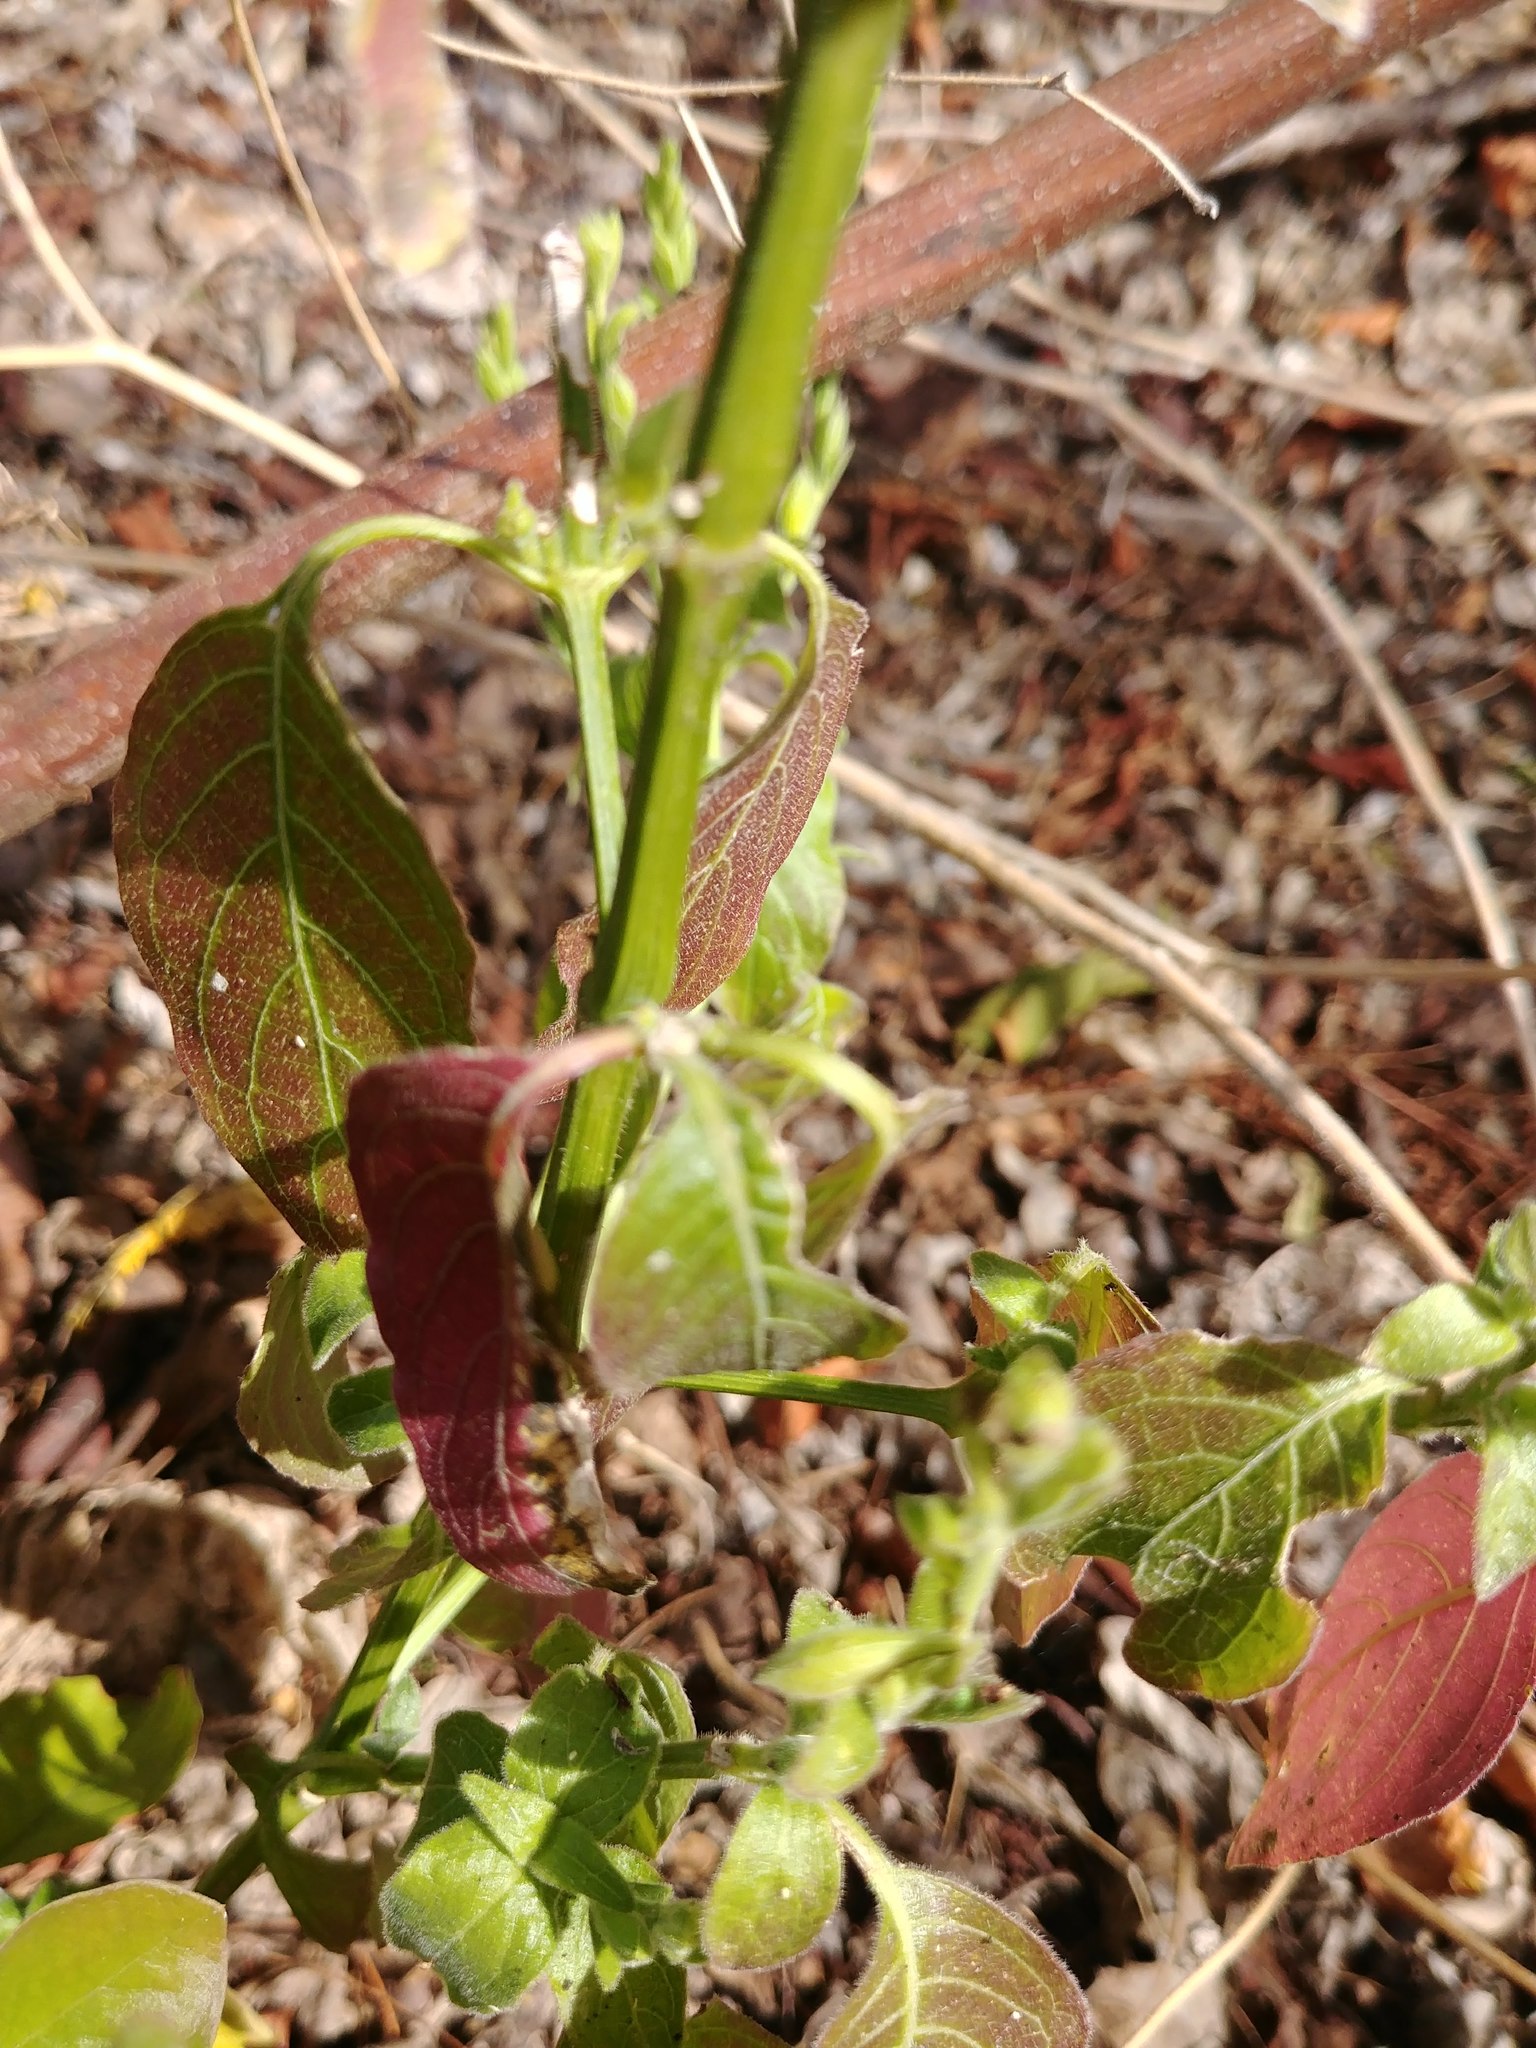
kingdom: Plantae
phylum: Tracheophyta
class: Magnoliopsida
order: Lamiales
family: Acanthaceae
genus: Henrya
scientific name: Henrya insularis
